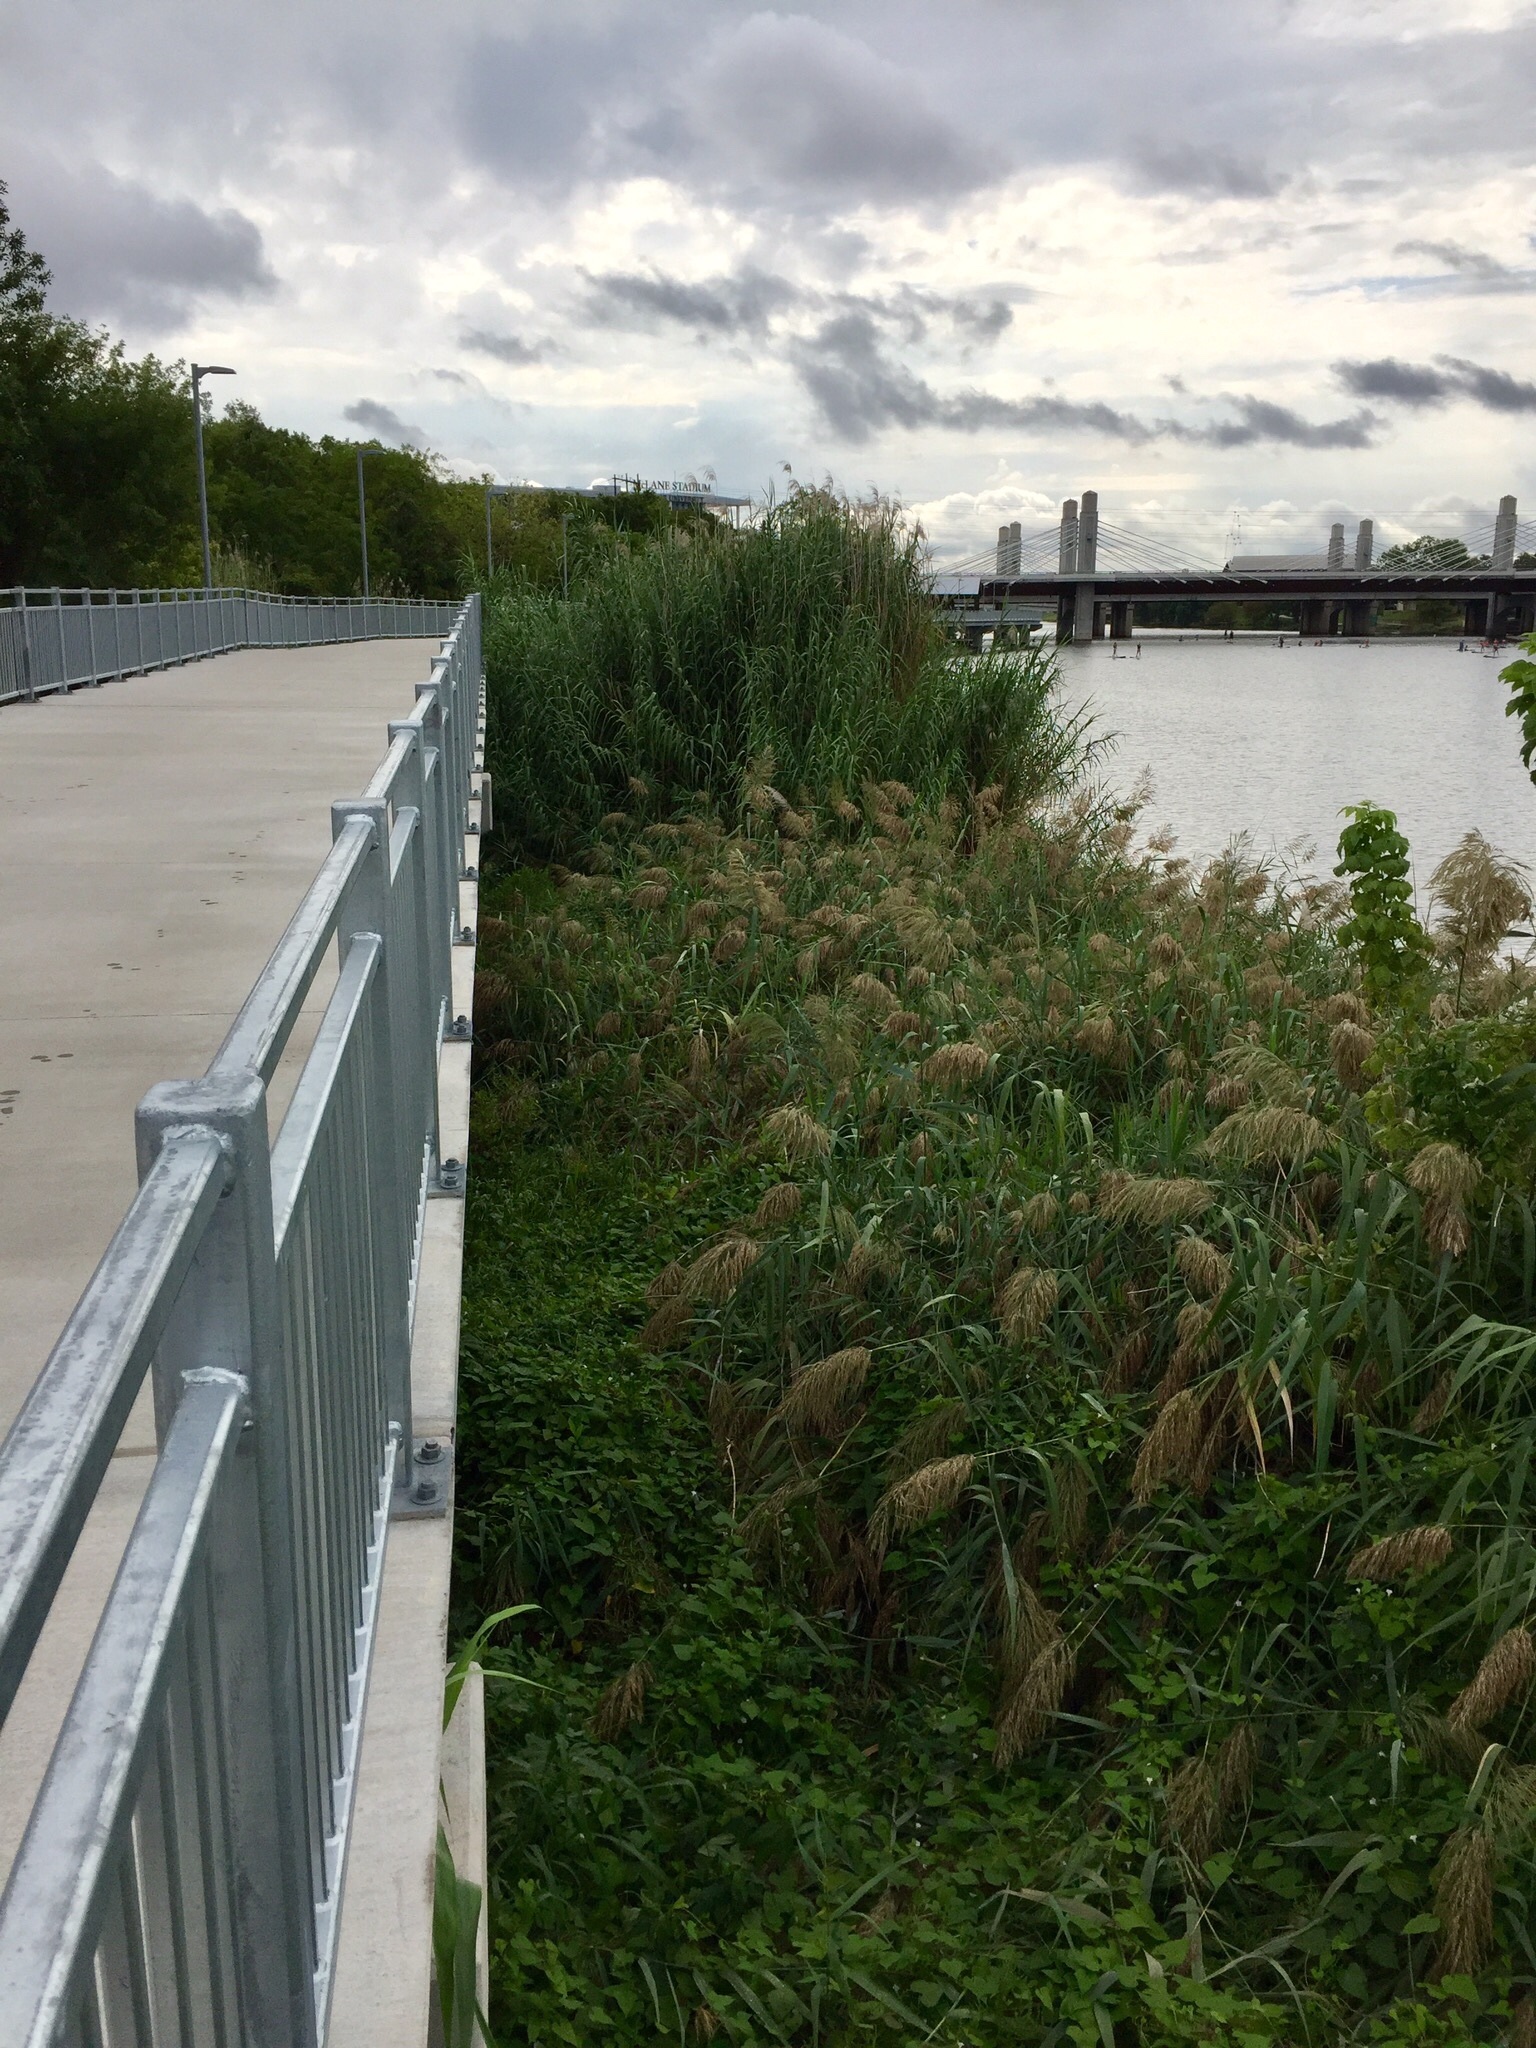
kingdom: Plantae
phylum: Tracheophyta
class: Liliopsida
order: Poales
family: Poaceae
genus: Phragmites
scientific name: Phragmites australis
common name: Common reed
